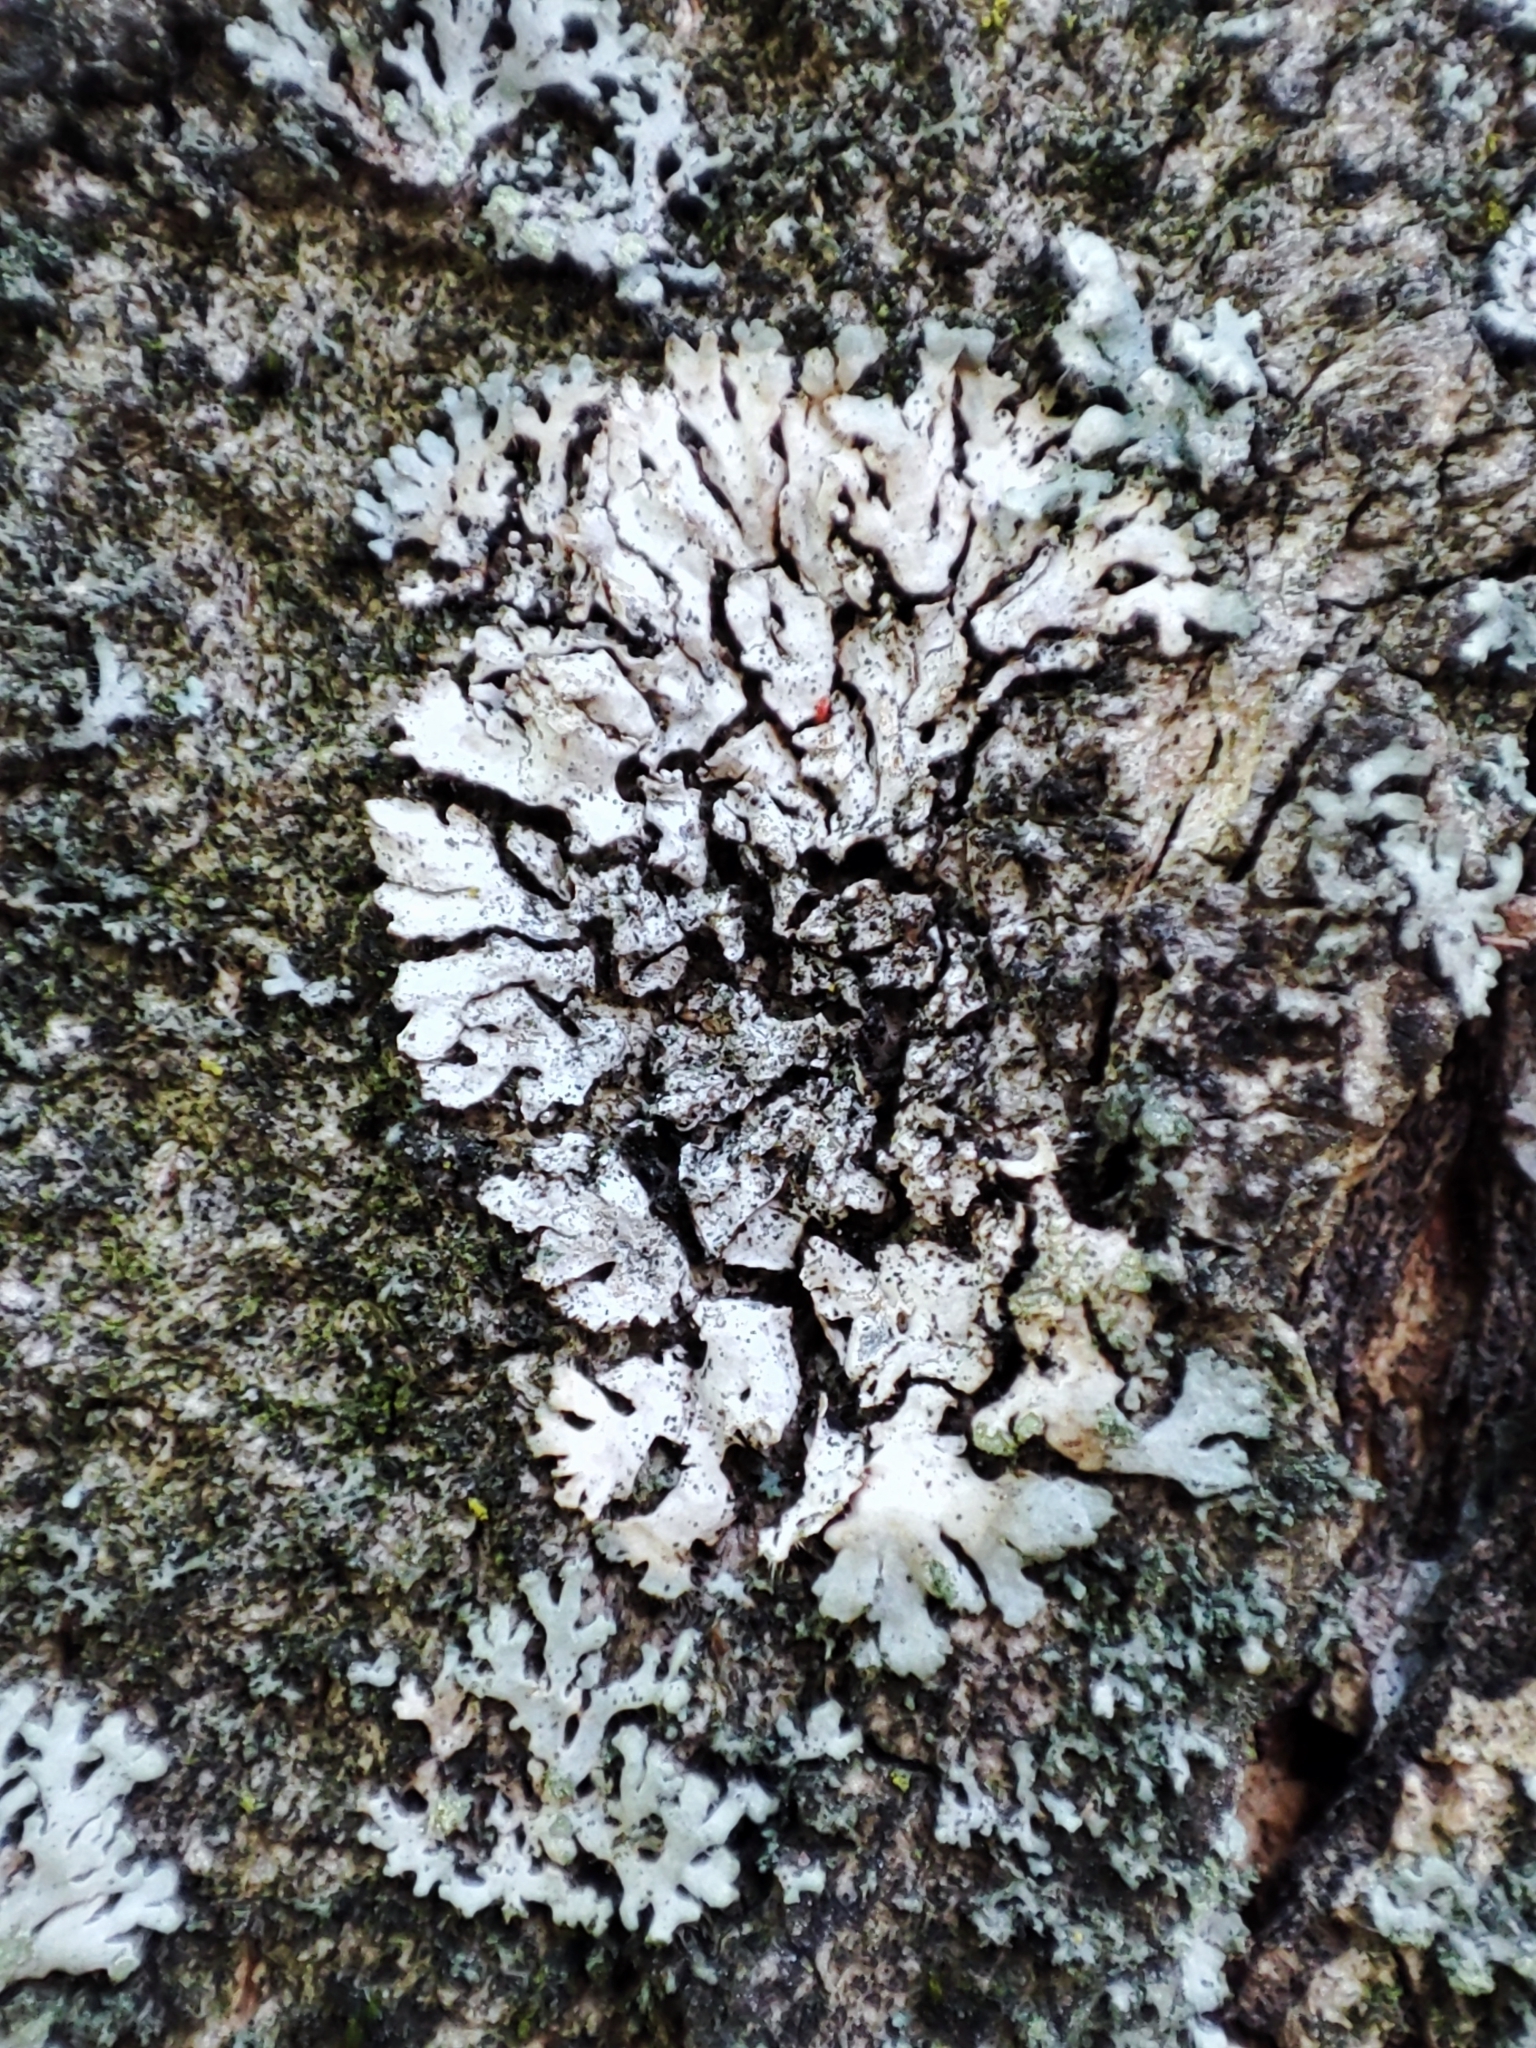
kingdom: Fungi
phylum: Ascomycota
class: Lecanoromycetes
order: Caliciales
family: Physciaceae
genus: Phaeophyscia
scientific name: Phaeophyscia orbicularis
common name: Mealy shadow lichen
